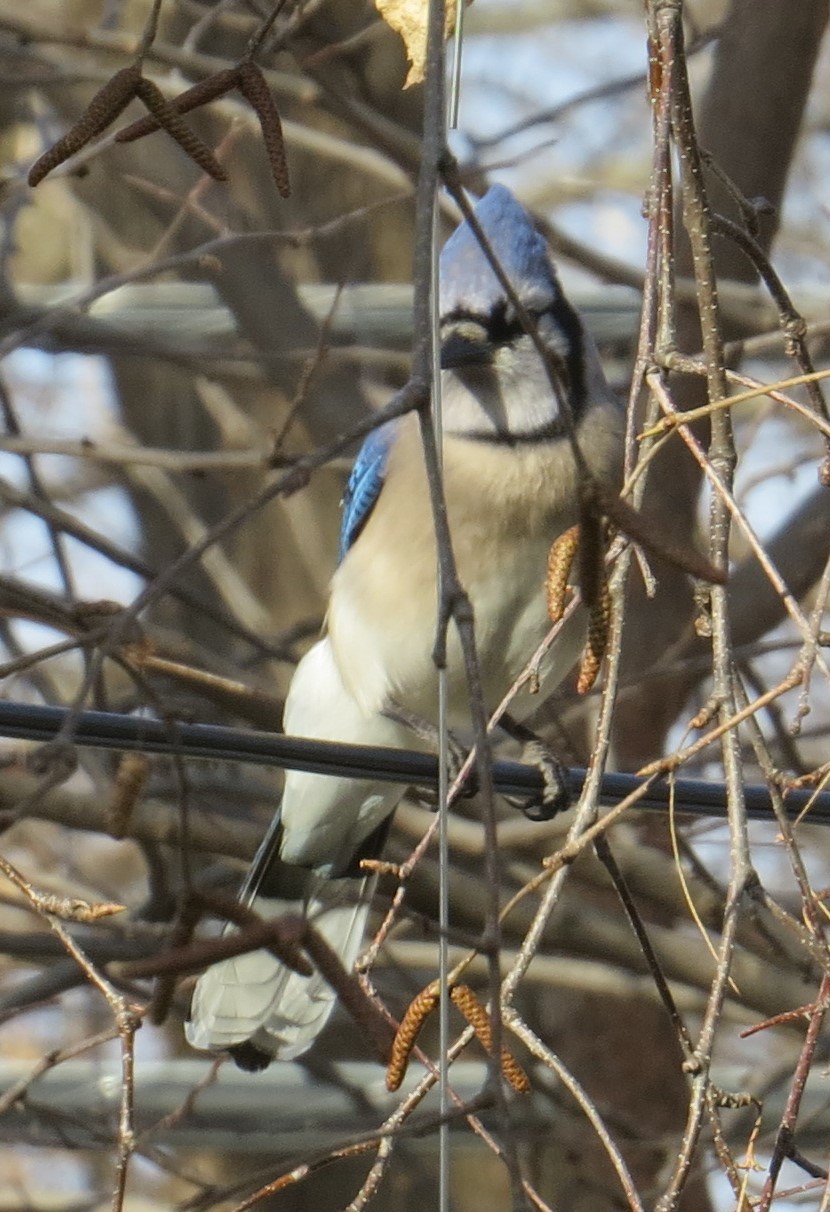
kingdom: Animalia
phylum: Chordata
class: Aves
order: Passeriformes
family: Corvidae
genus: Cyanocitta
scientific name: Cyanocitta cristata
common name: Blue jay
